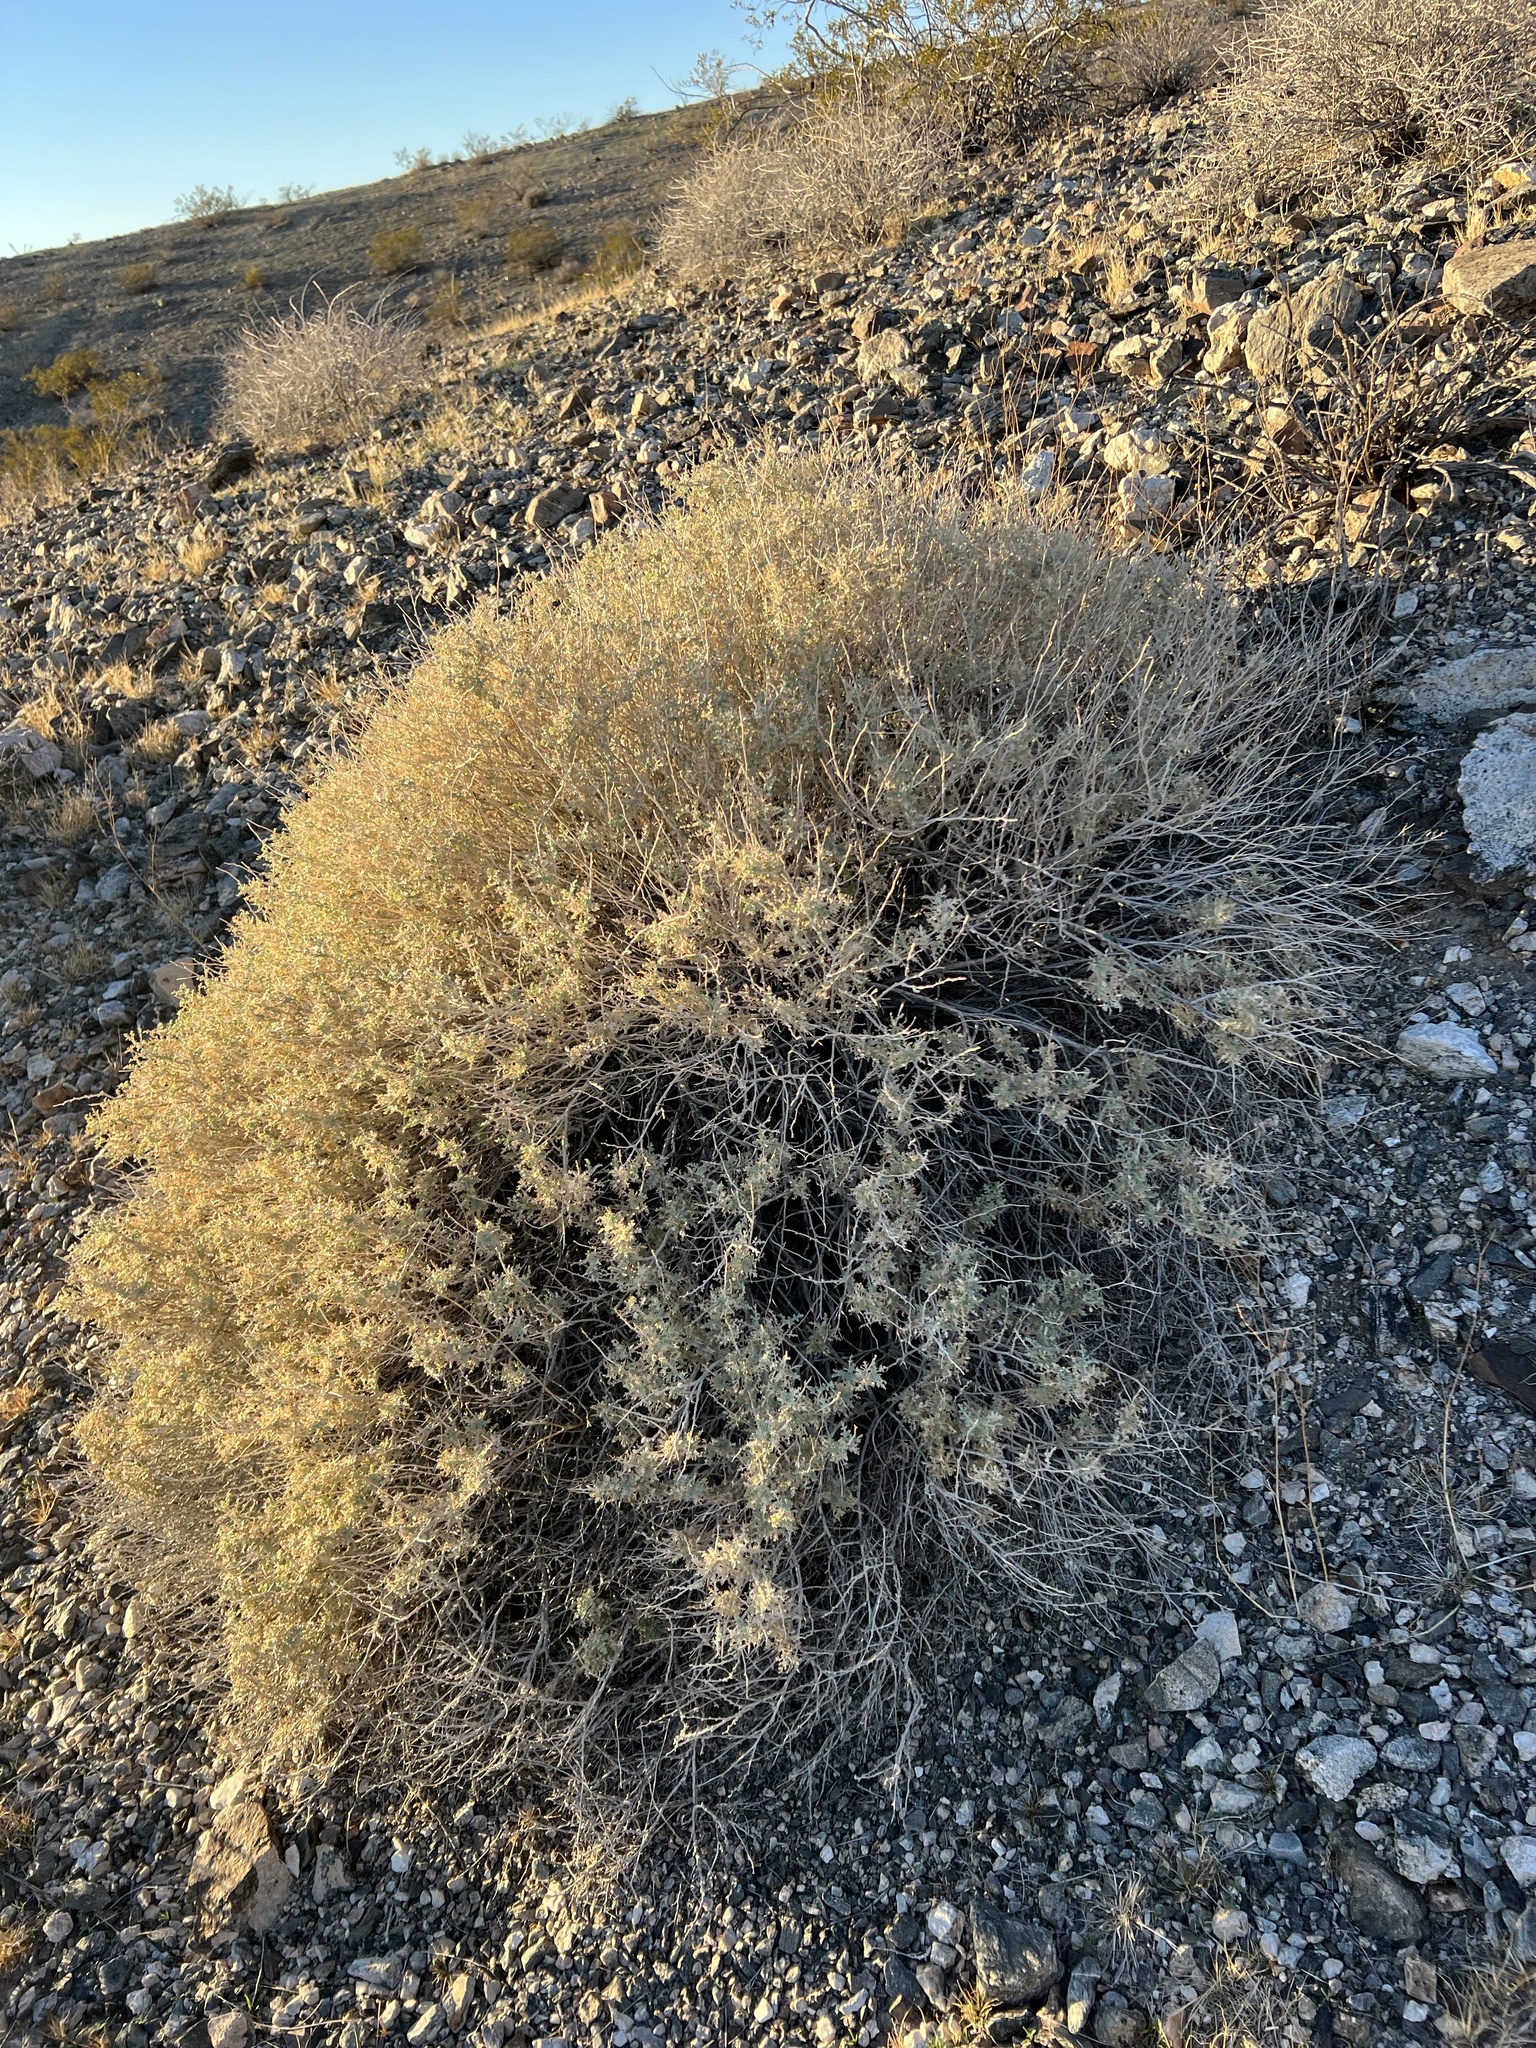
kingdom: Plantae
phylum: Tracheophyta
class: Magnoliopsida
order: Asterales
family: Asteraceae
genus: Ambrosia
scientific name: Ambrosia dumosa
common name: Bur-sage
